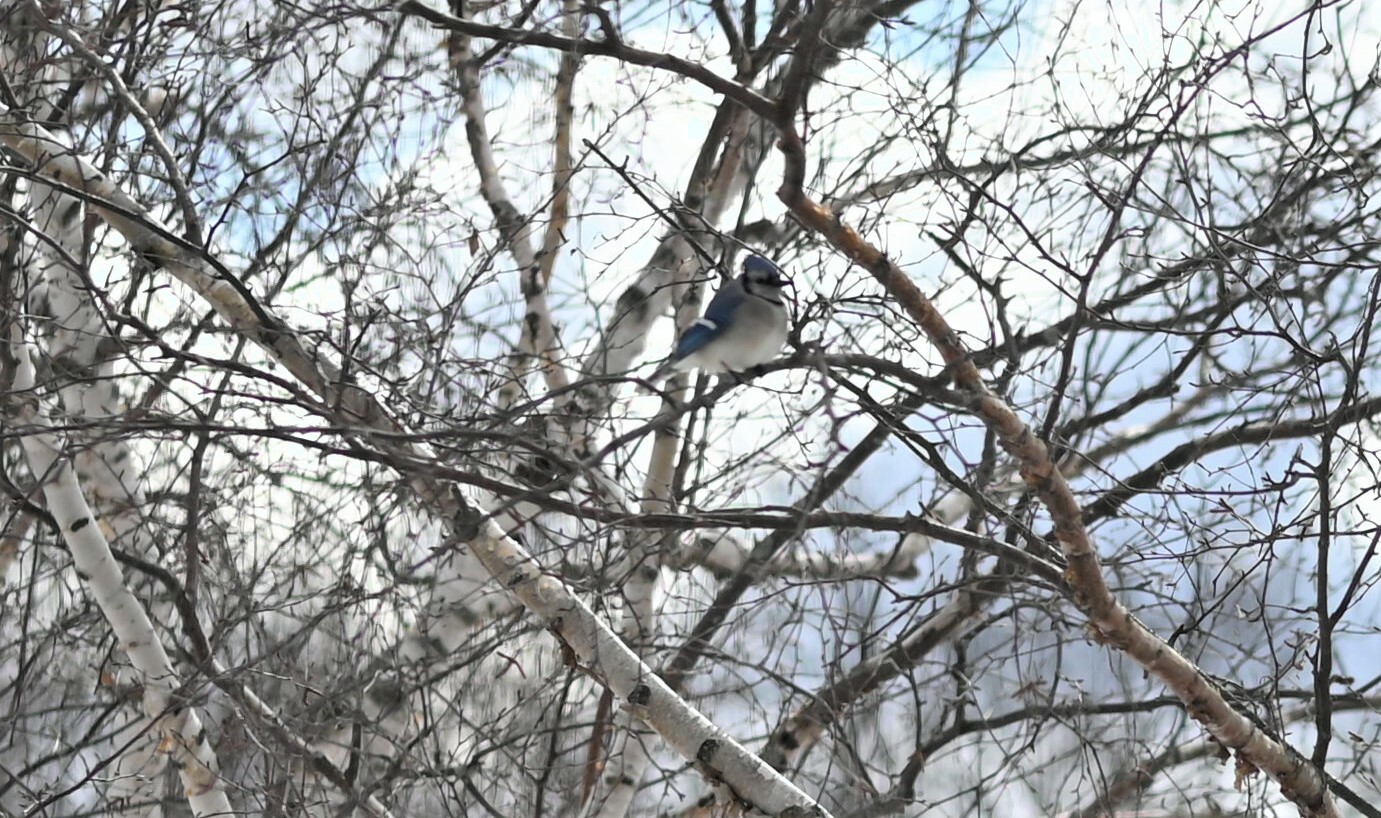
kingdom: Animalia
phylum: Chordata
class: Aves
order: Passeriformes
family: Corvidae
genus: Cyanocitta
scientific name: Cyanocitta cristata
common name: Blue jay
